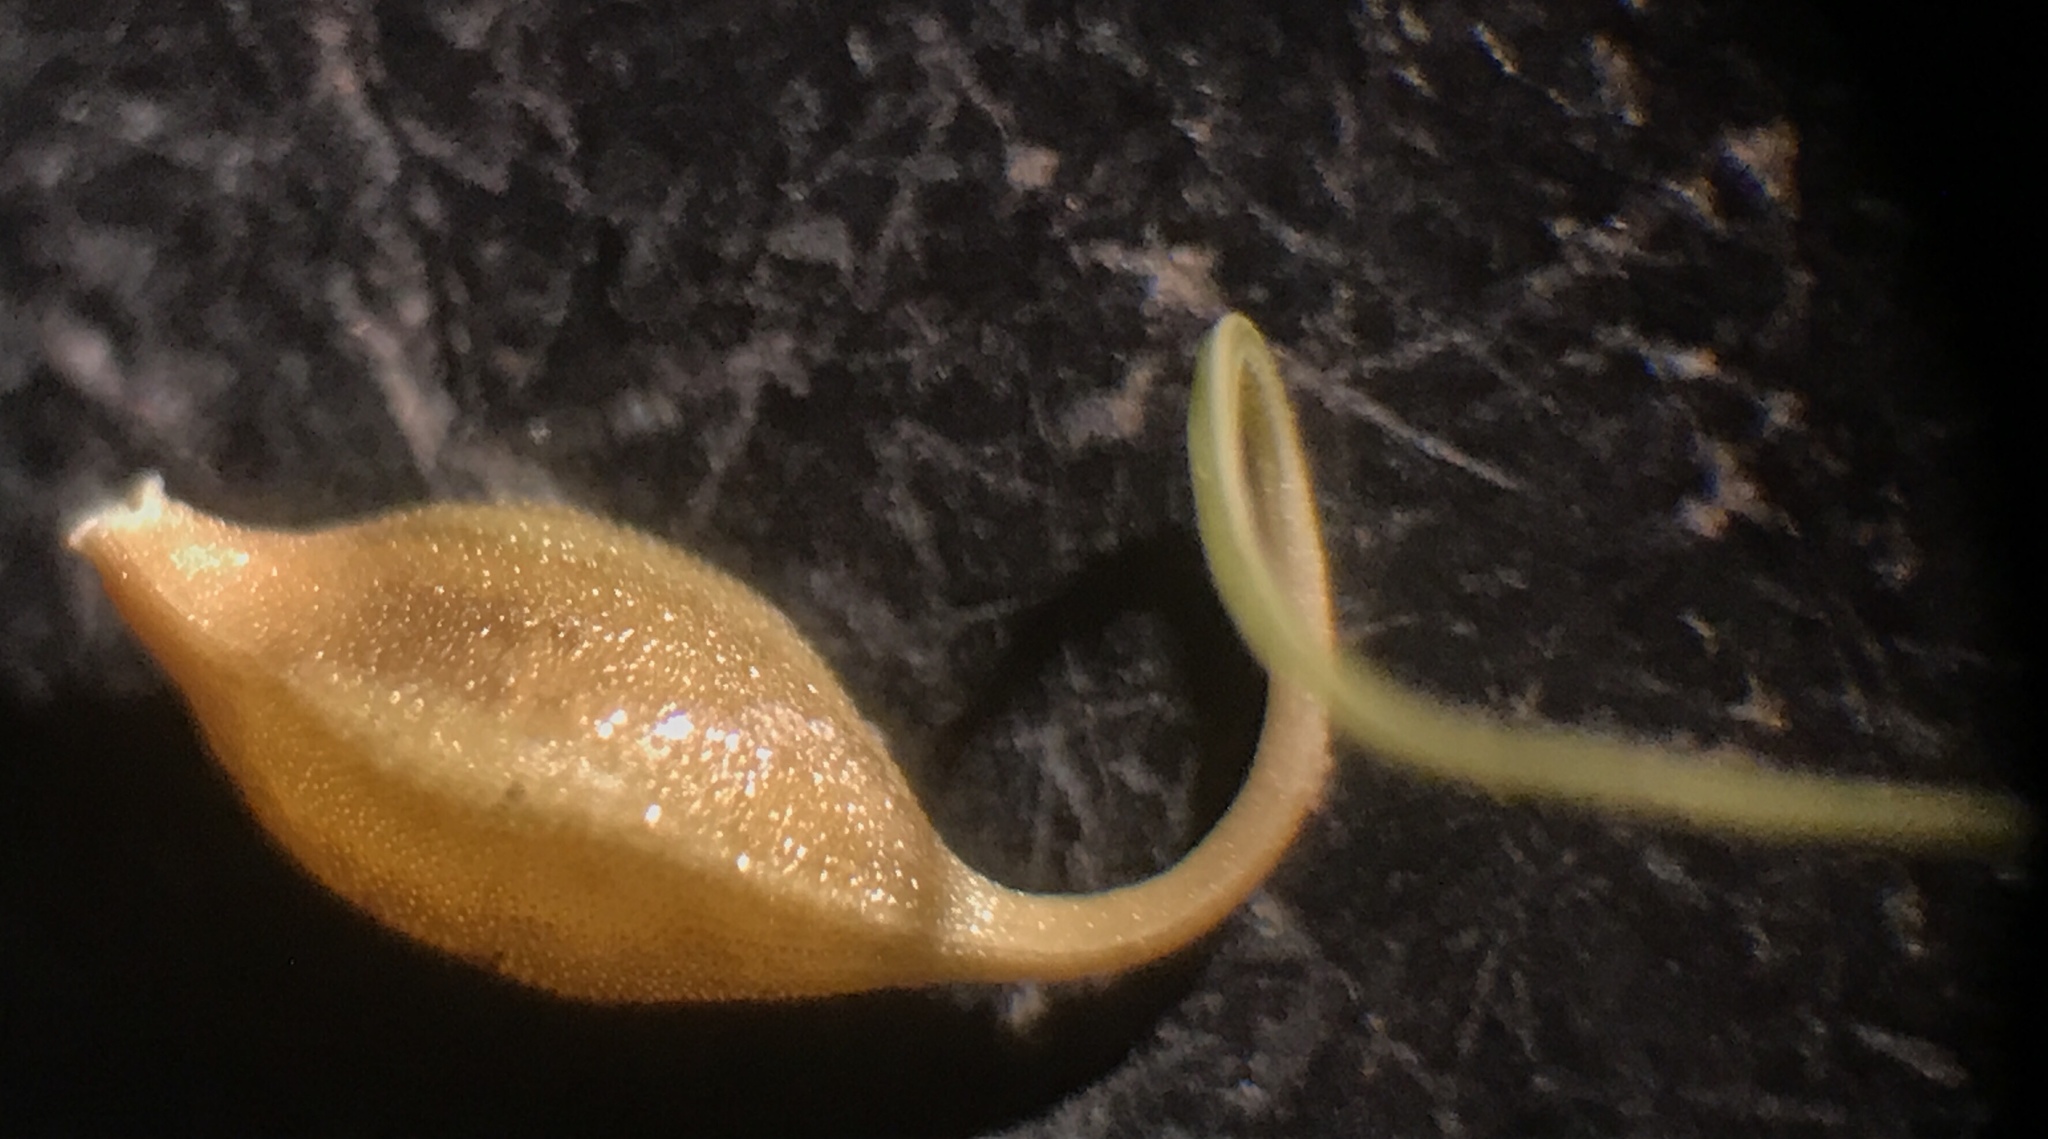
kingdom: Plantae
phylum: Tracheophyta
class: Liliopsida
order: Poales
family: Cyperaceae
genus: Carex
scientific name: Carex lurida
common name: Sallow sedge
